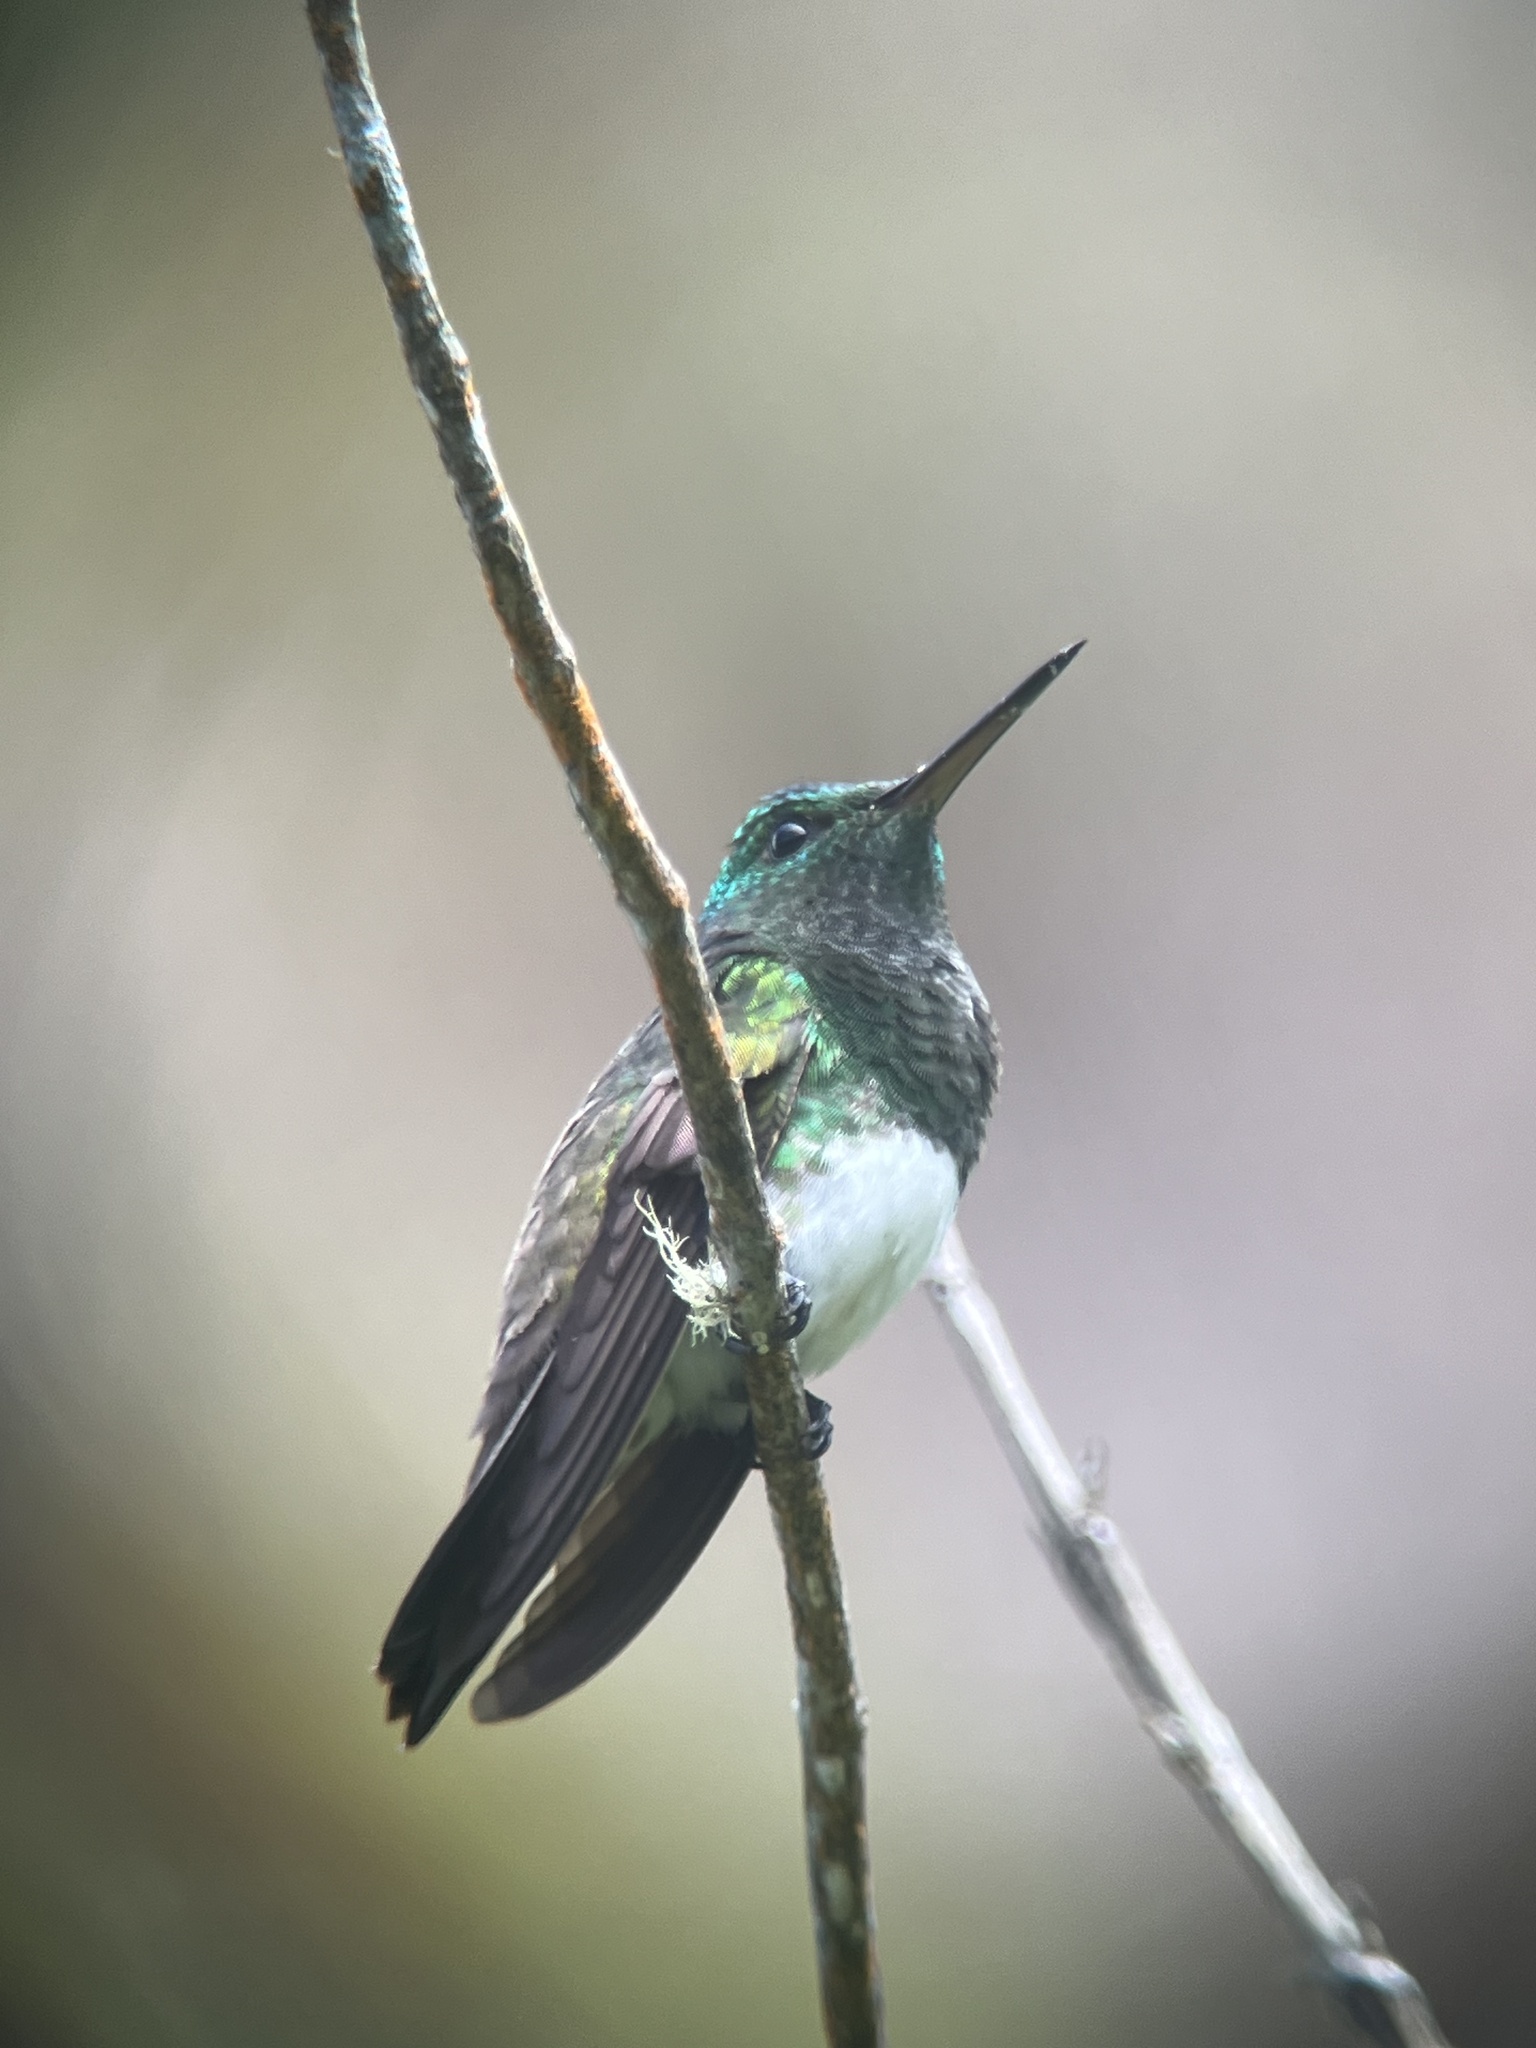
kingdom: Animalia
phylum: Chordata
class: Aves
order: Apodiformes
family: Trochilidae
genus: Saucerottia
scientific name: Saucerottia edward
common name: Snowy-bellied hummingbird
